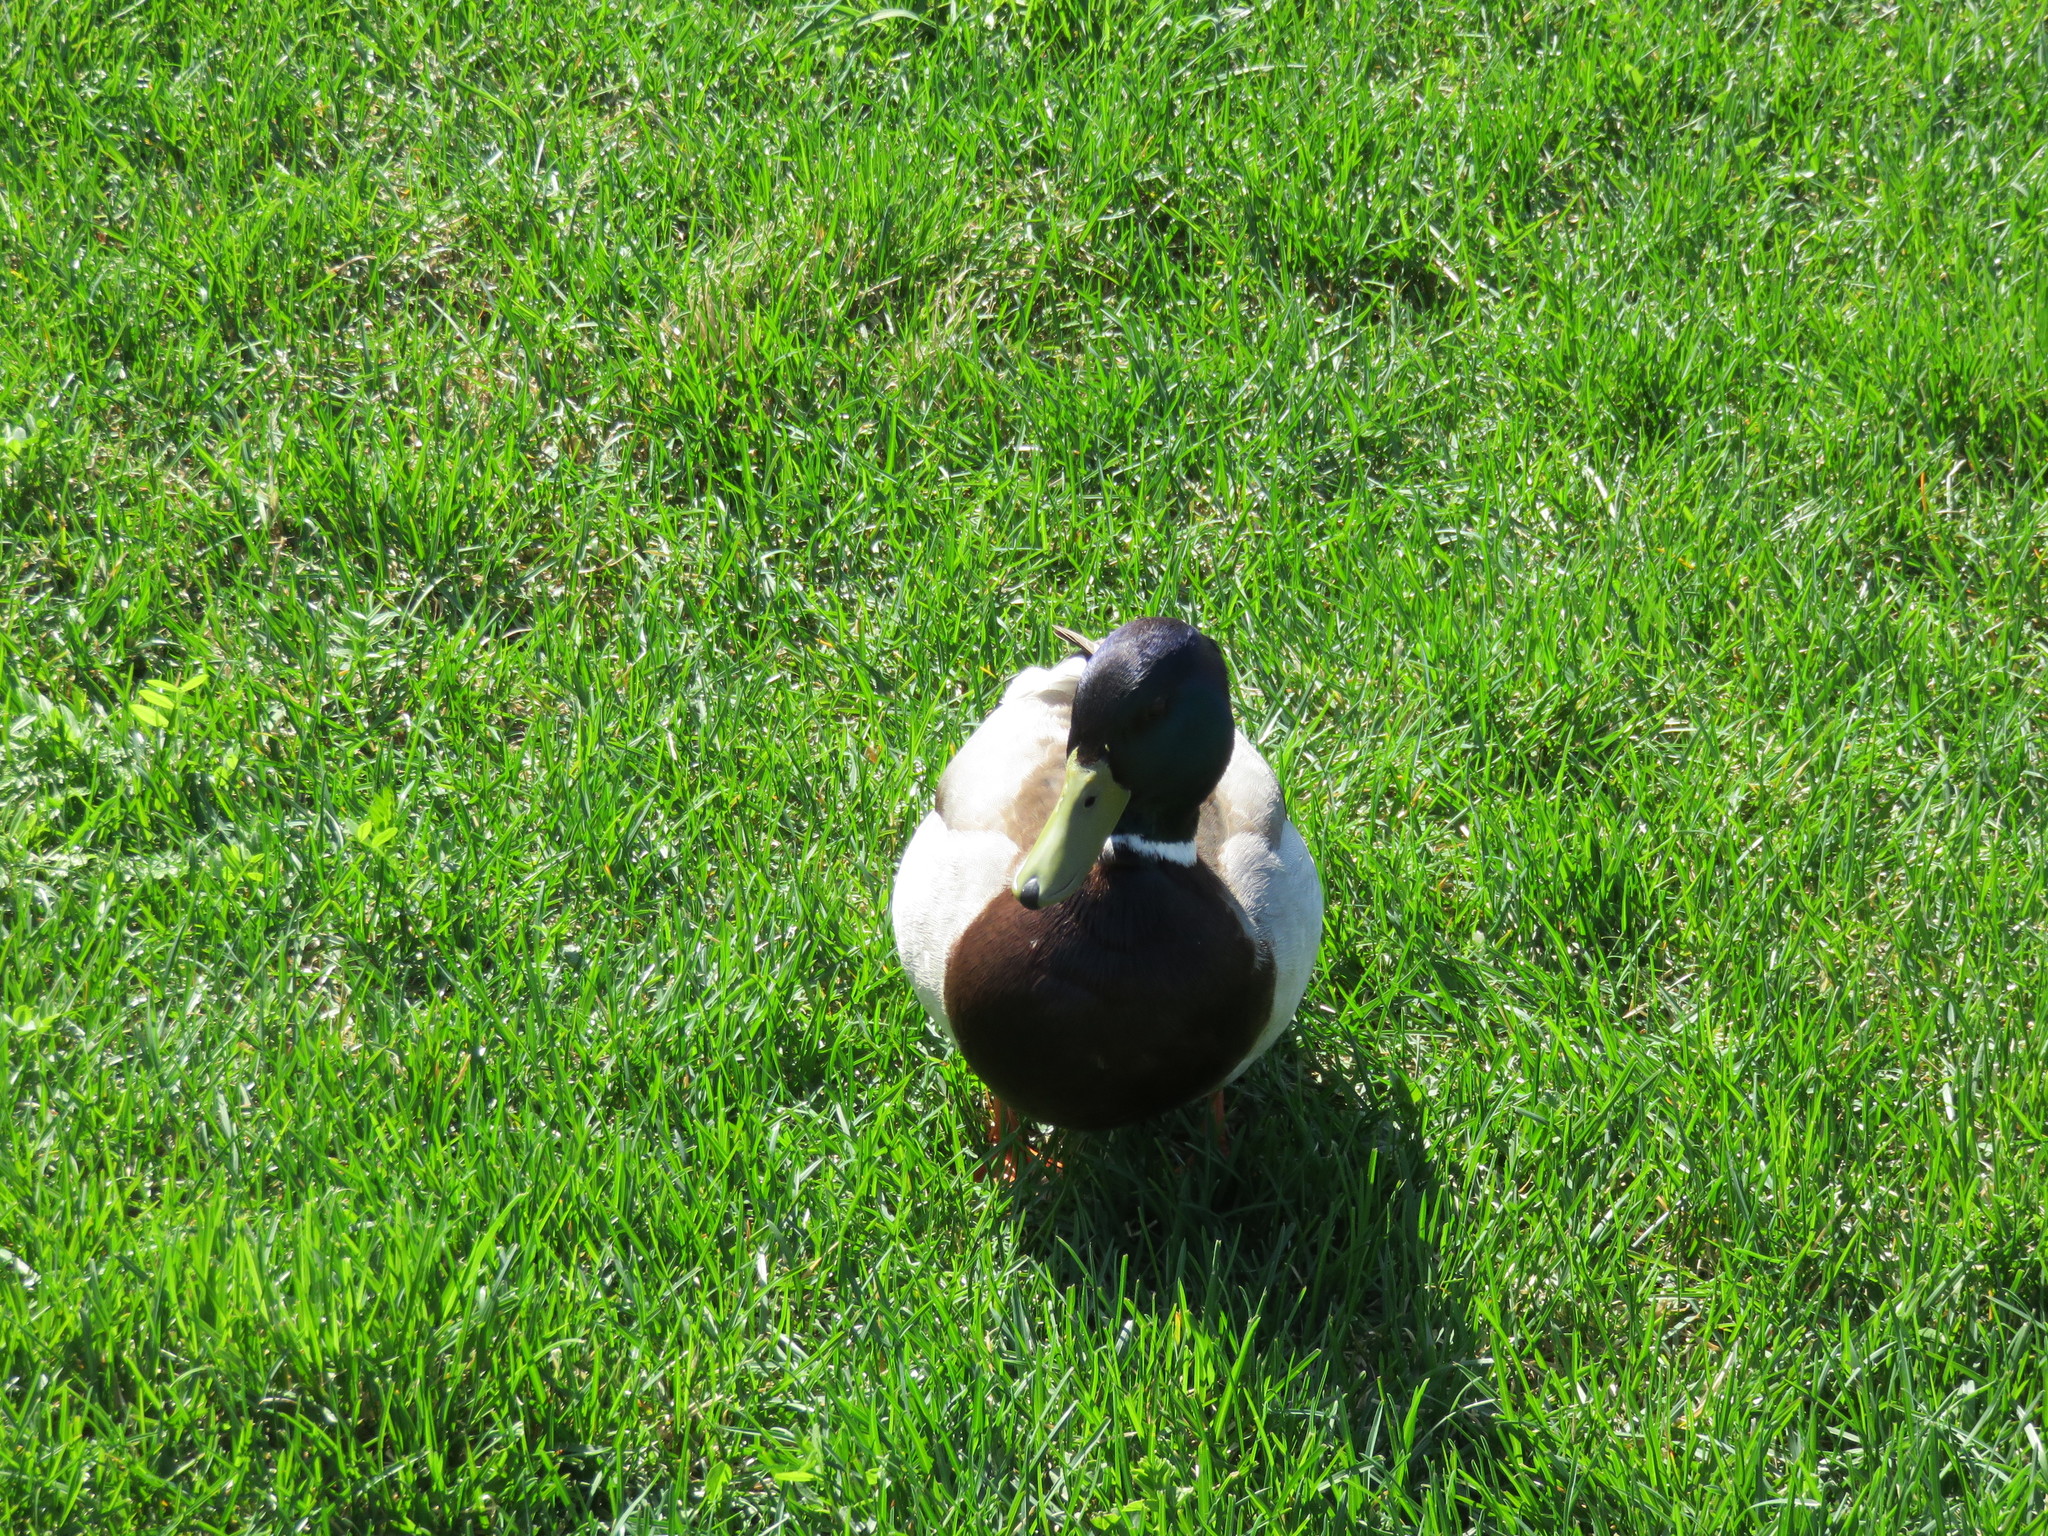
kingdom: Animalia
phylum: Chordata
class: Aves
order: Anseriformes
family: Anatidae
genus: Anas
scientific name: Anas platyrhynchos
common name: Mallard
